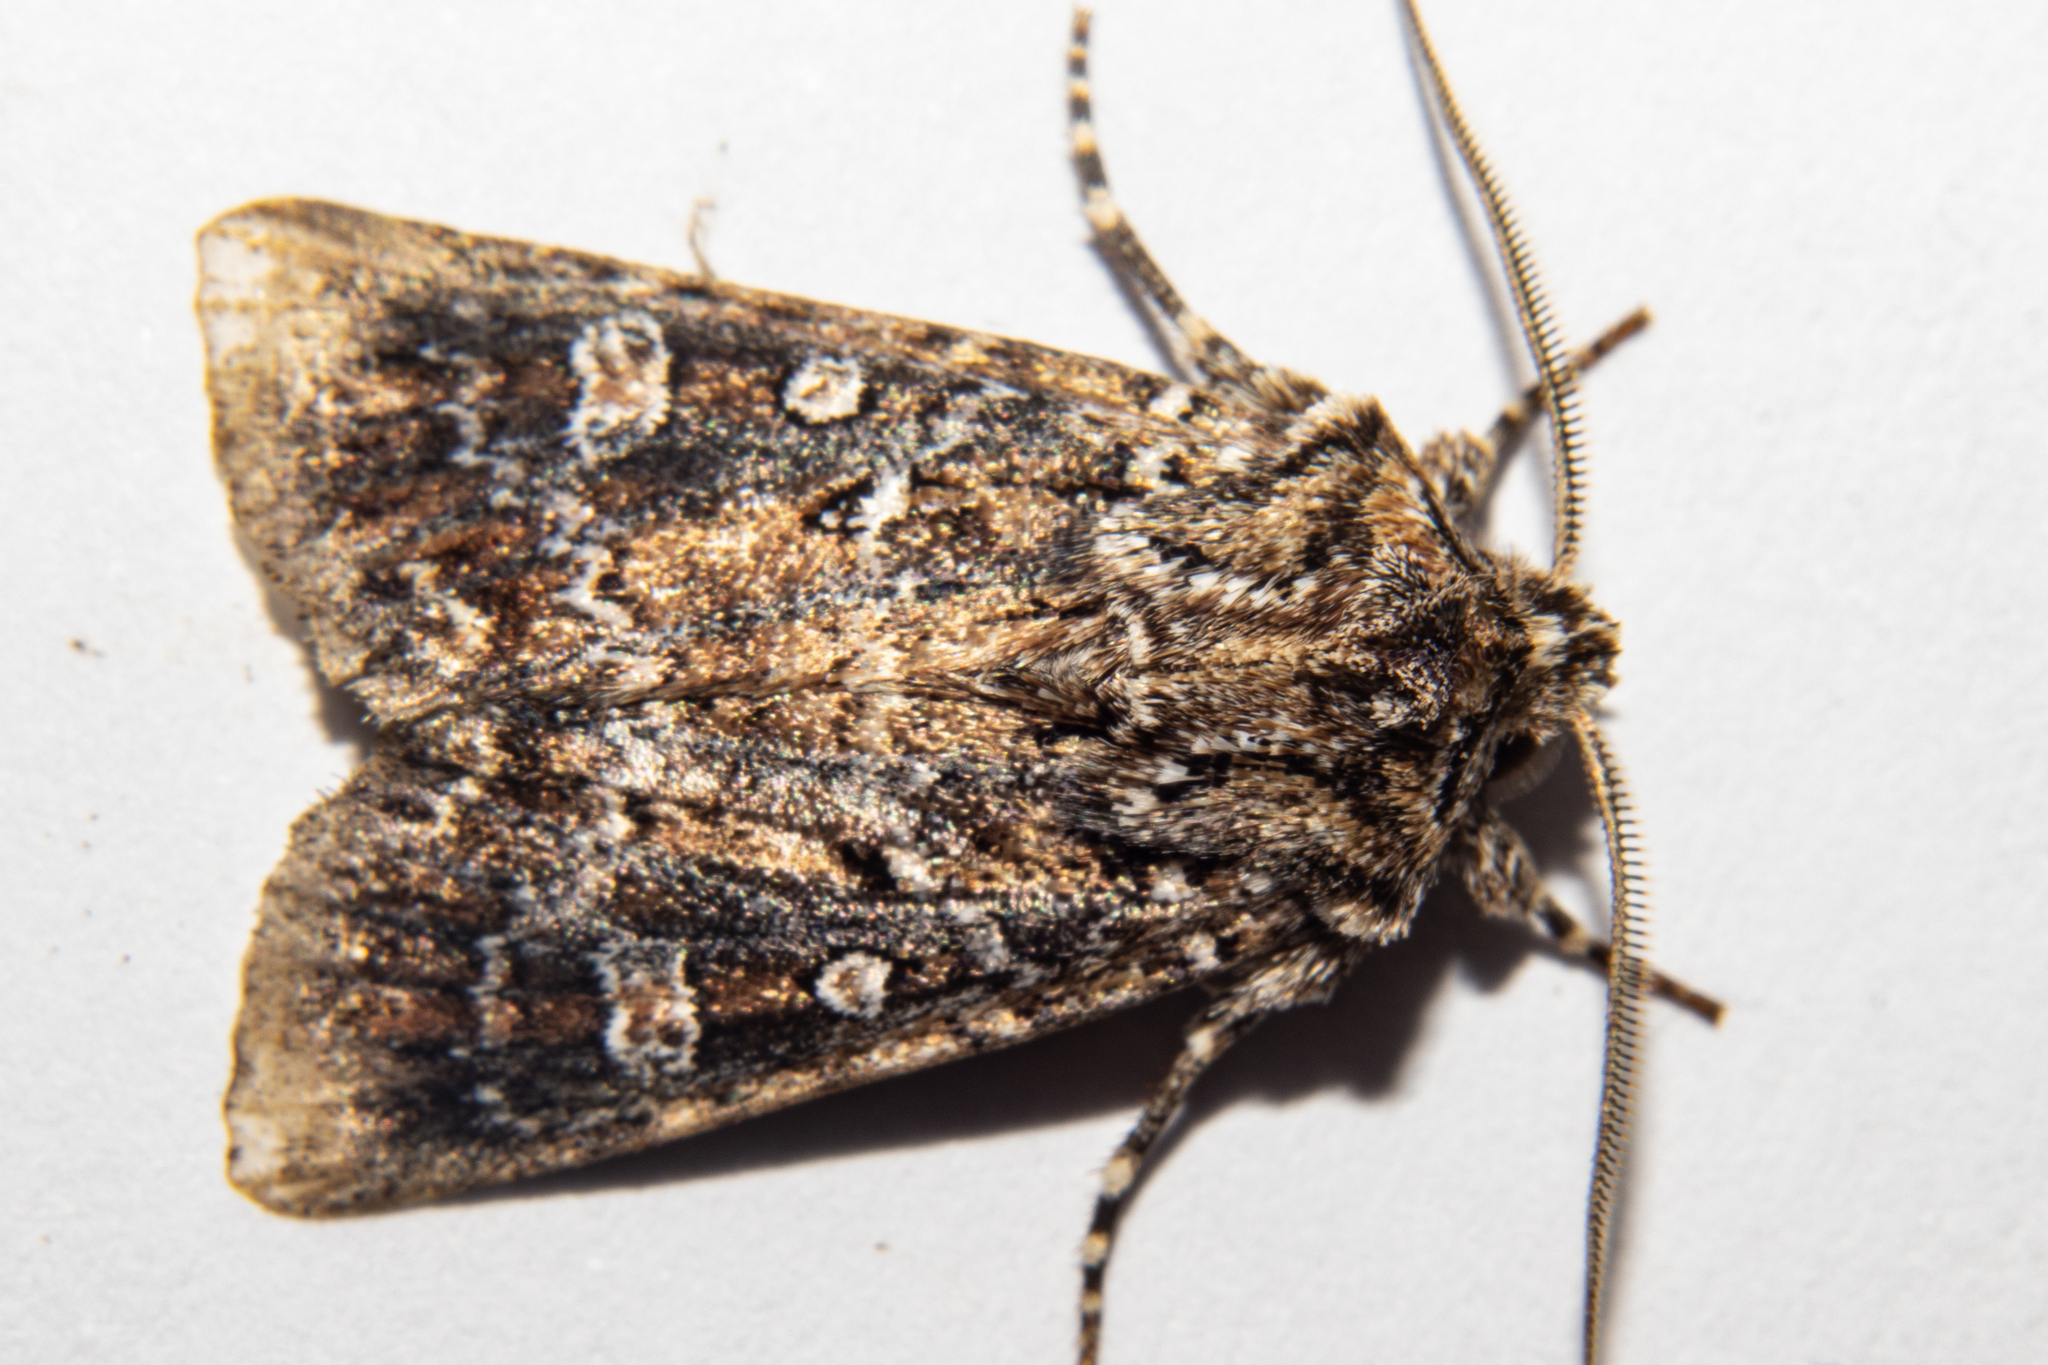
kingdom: Animalia
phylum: Arthropoda
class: Insecta
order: Lepidoptera
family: Noctuidae
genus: Ichneutica
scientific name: Ichneutica lithias
